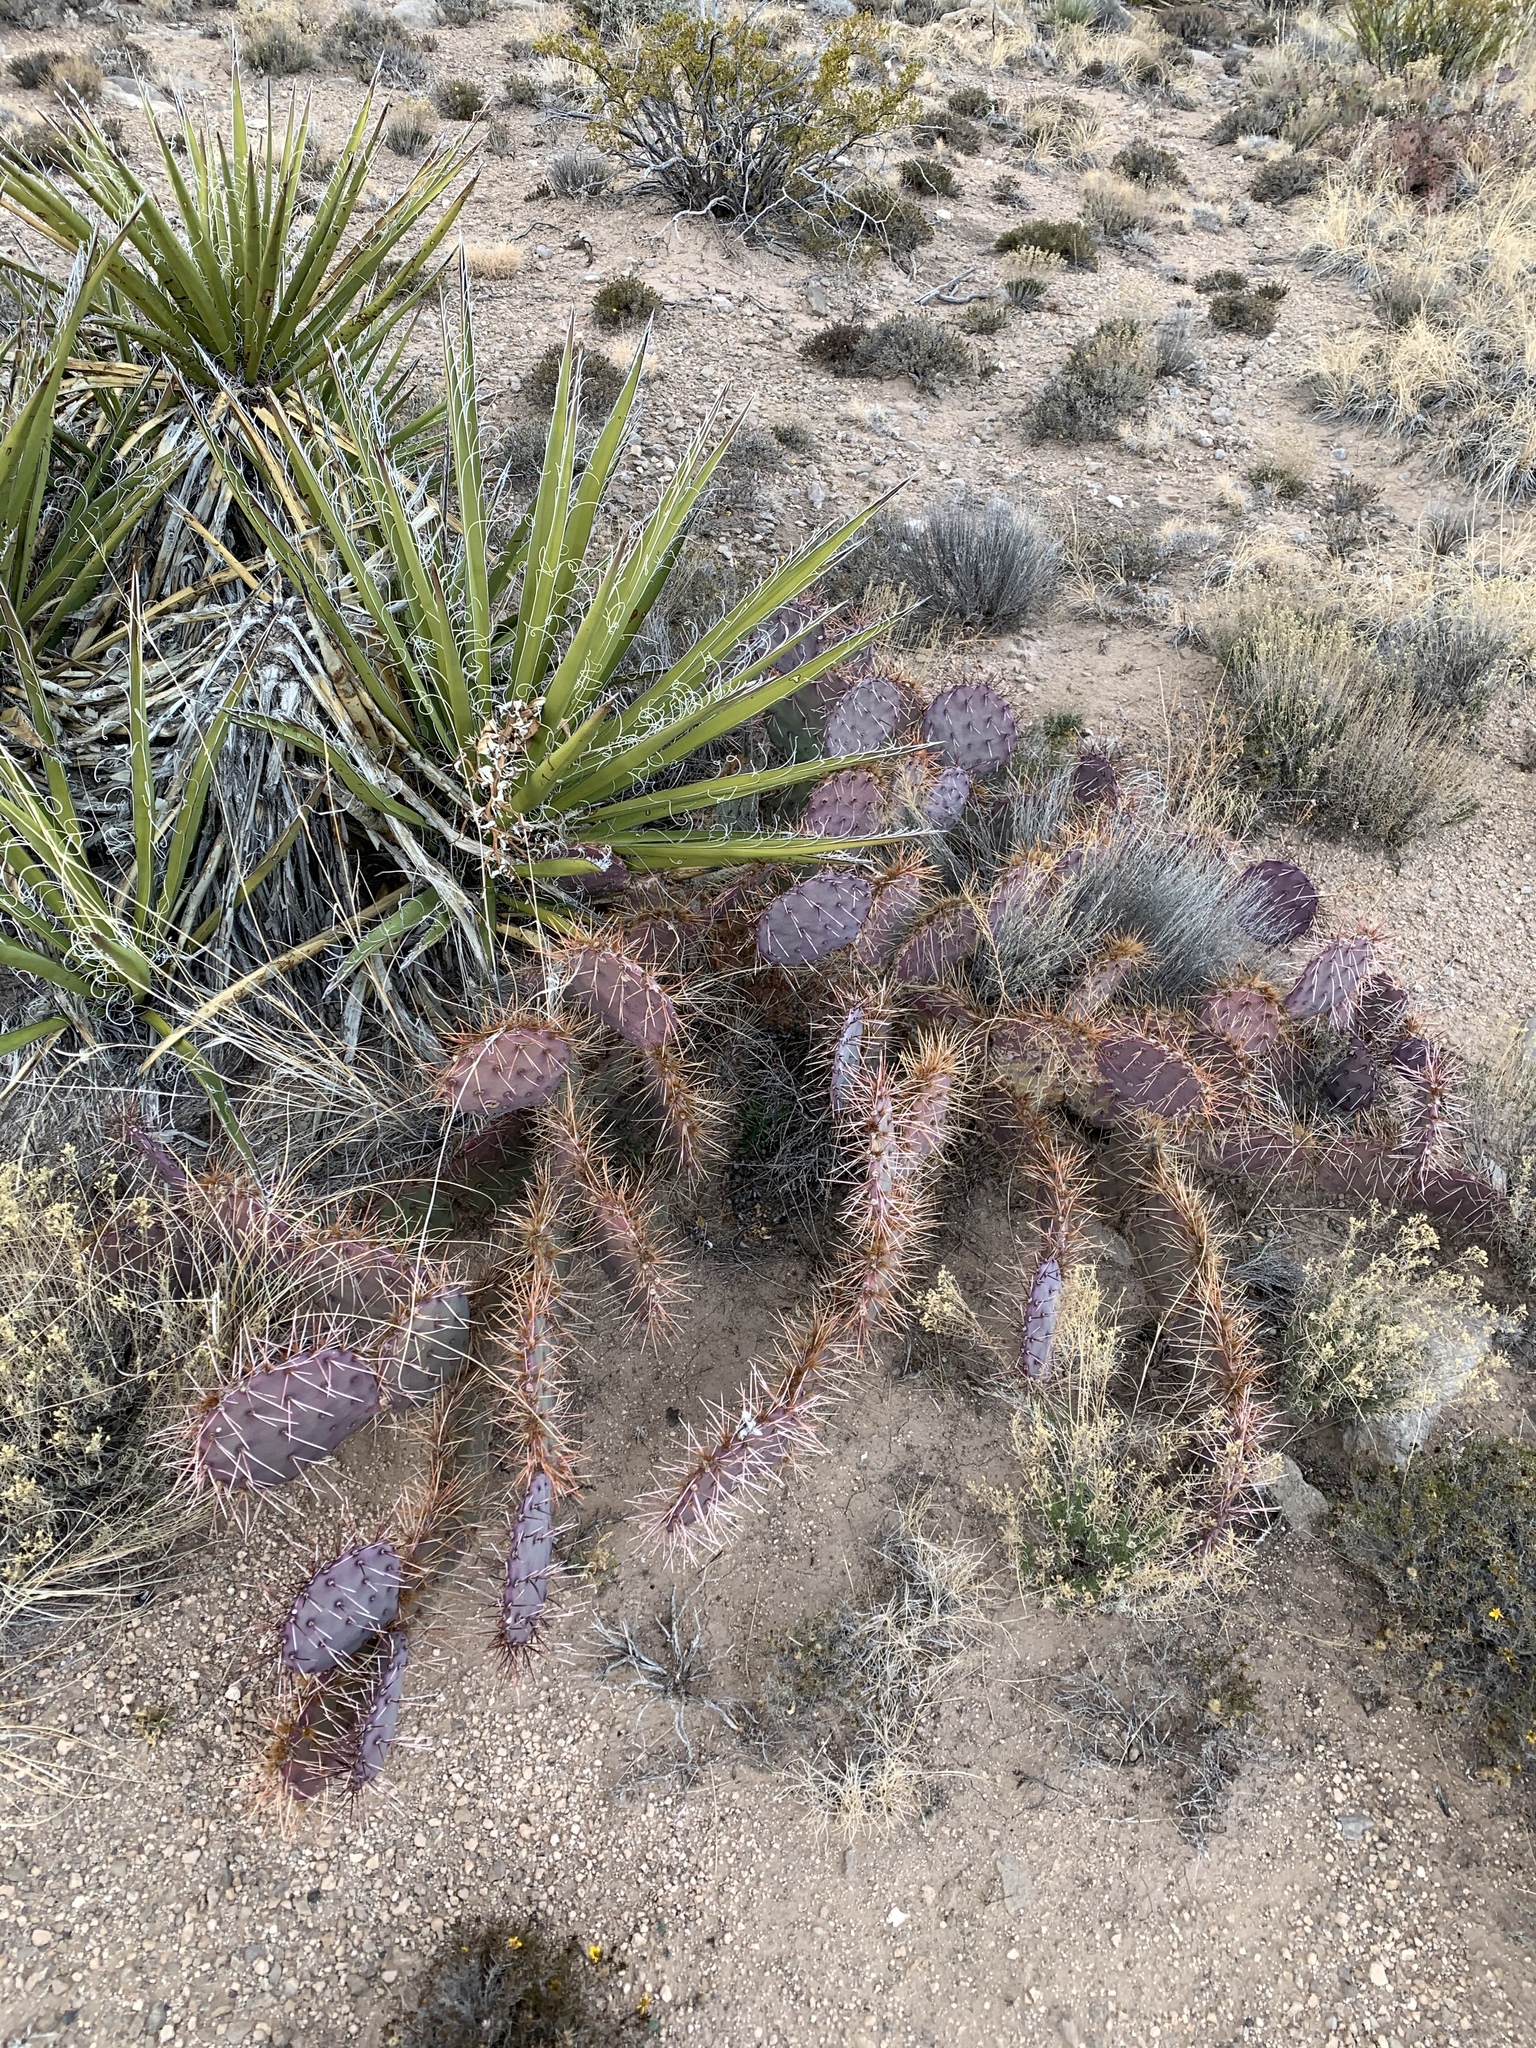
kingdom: Plantae
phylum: Tracheophyta
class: Magnoliopsida
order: Caryophyllales
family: Cactaceae
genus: Opuntia
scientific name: Opuntia macrocentra
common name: Purple prickly-pear
